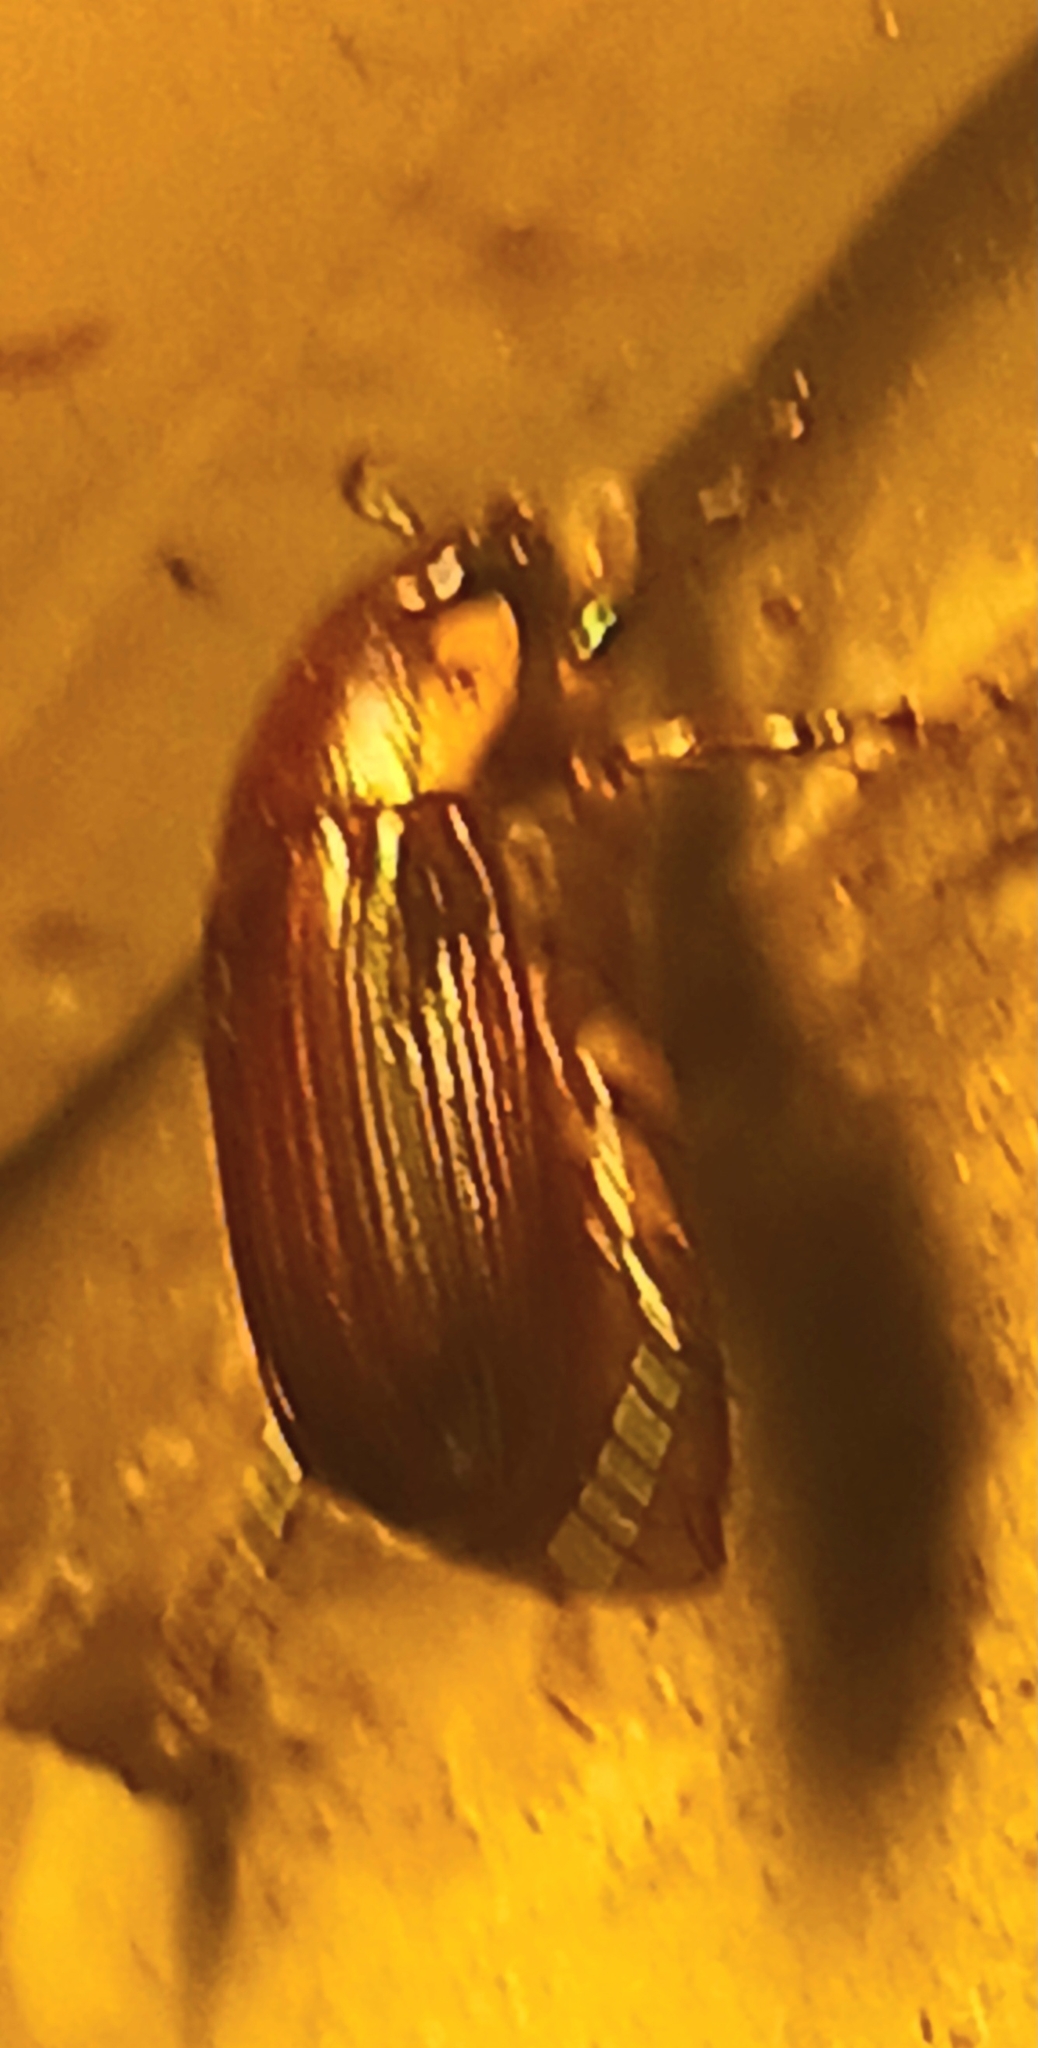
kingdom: Animalia
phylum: Arthropoda
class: Insecta
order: Coleoptera
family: Scarabaeidae
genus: Callistethus
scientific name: Callistethus marginatus
